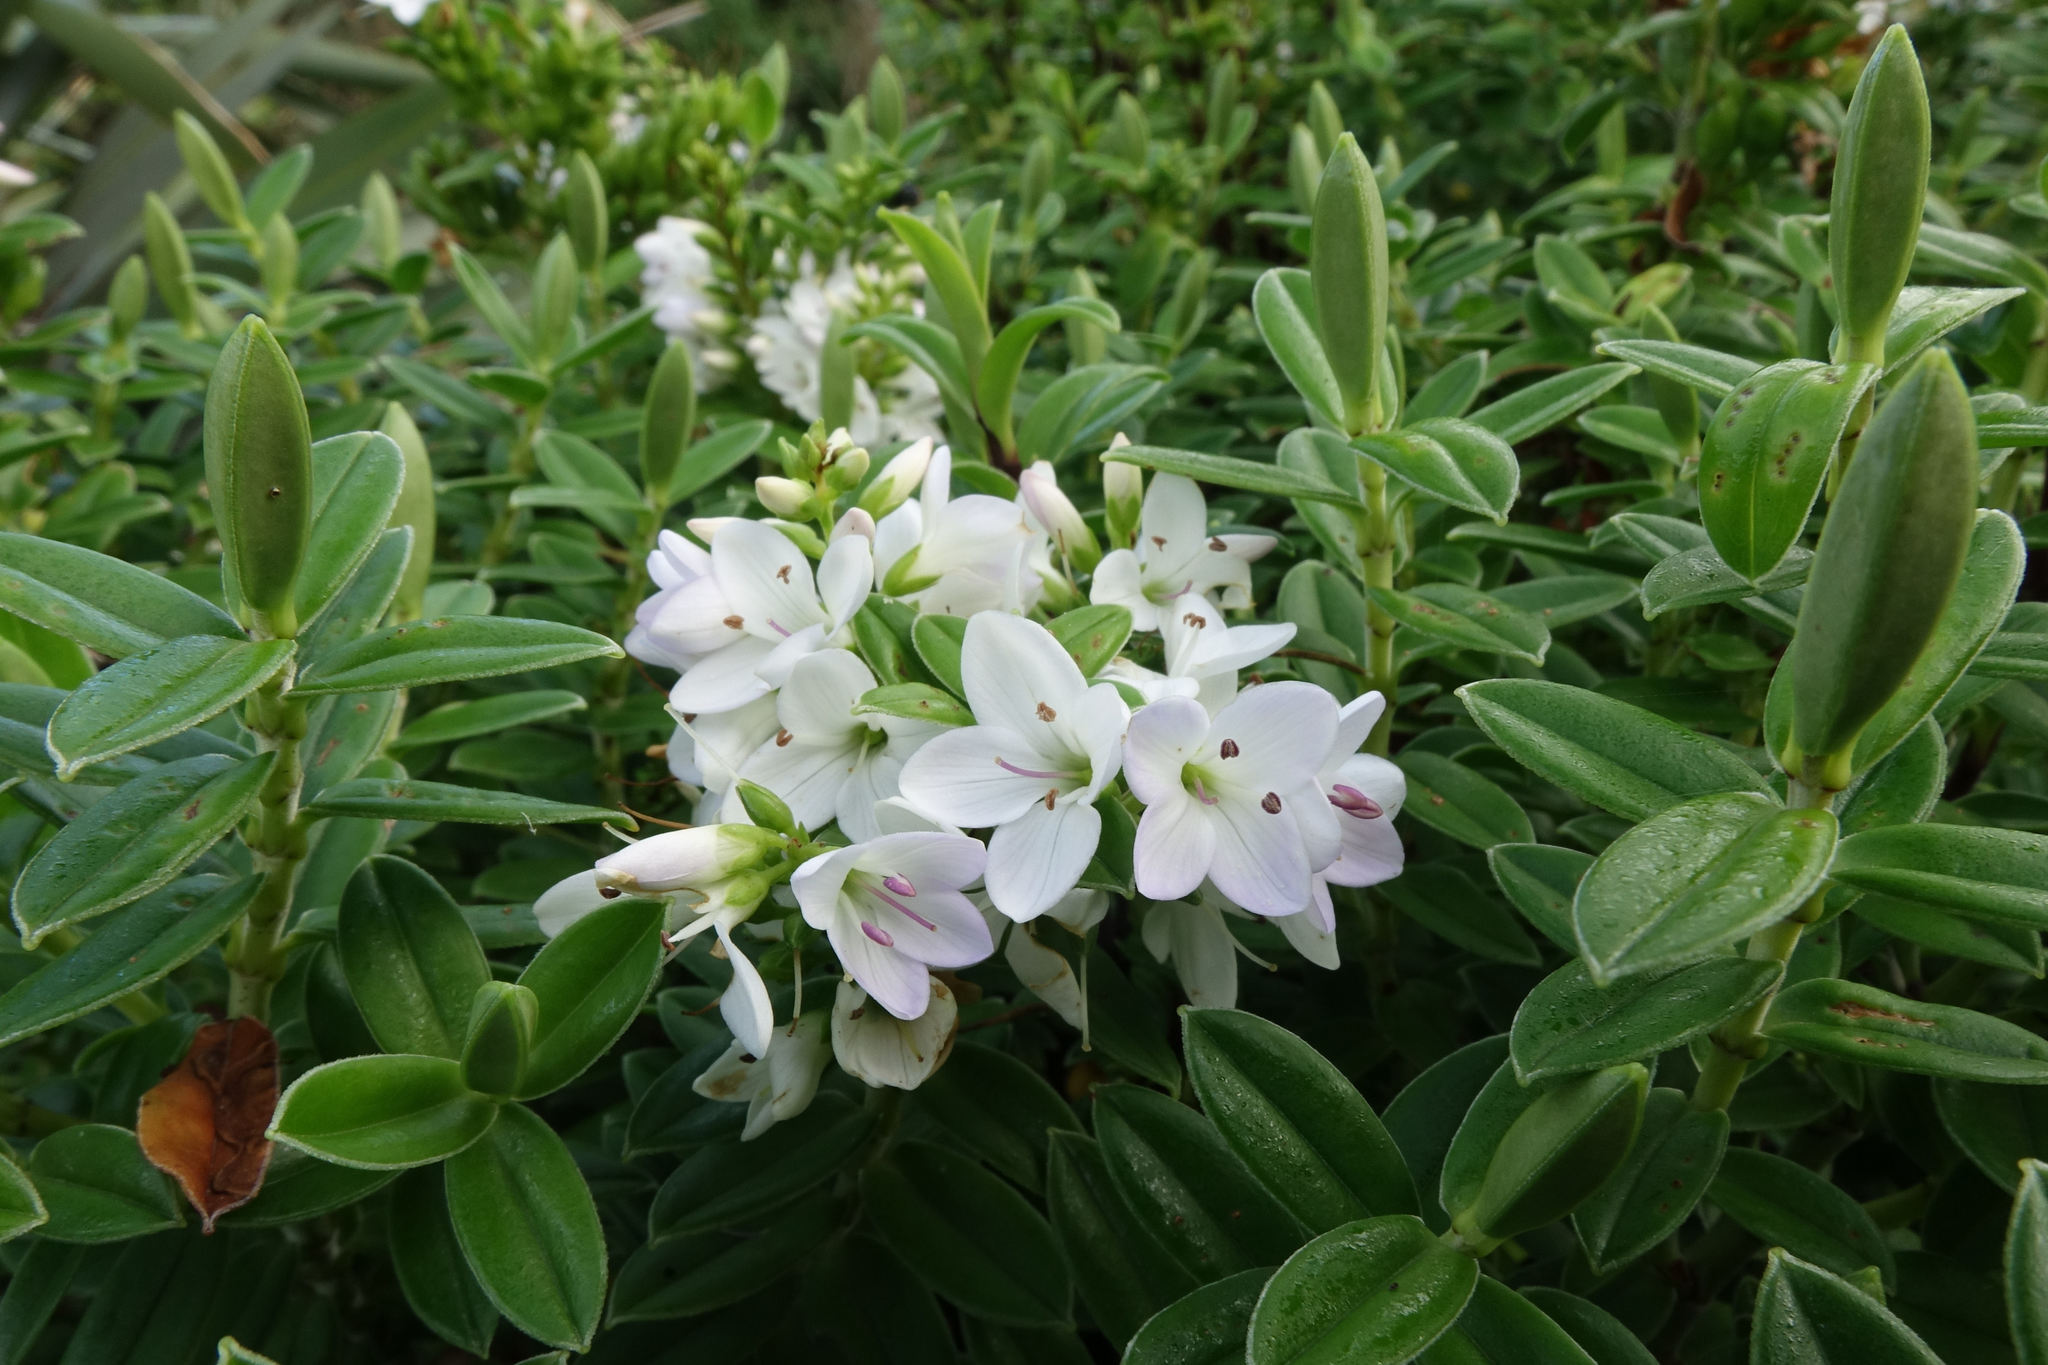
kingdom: Plantae
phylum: Tracheophyta
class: Magnoliopsida
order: Lamiales
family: Plantaginaceae
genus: Veronica
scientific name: Veronica elliptica
